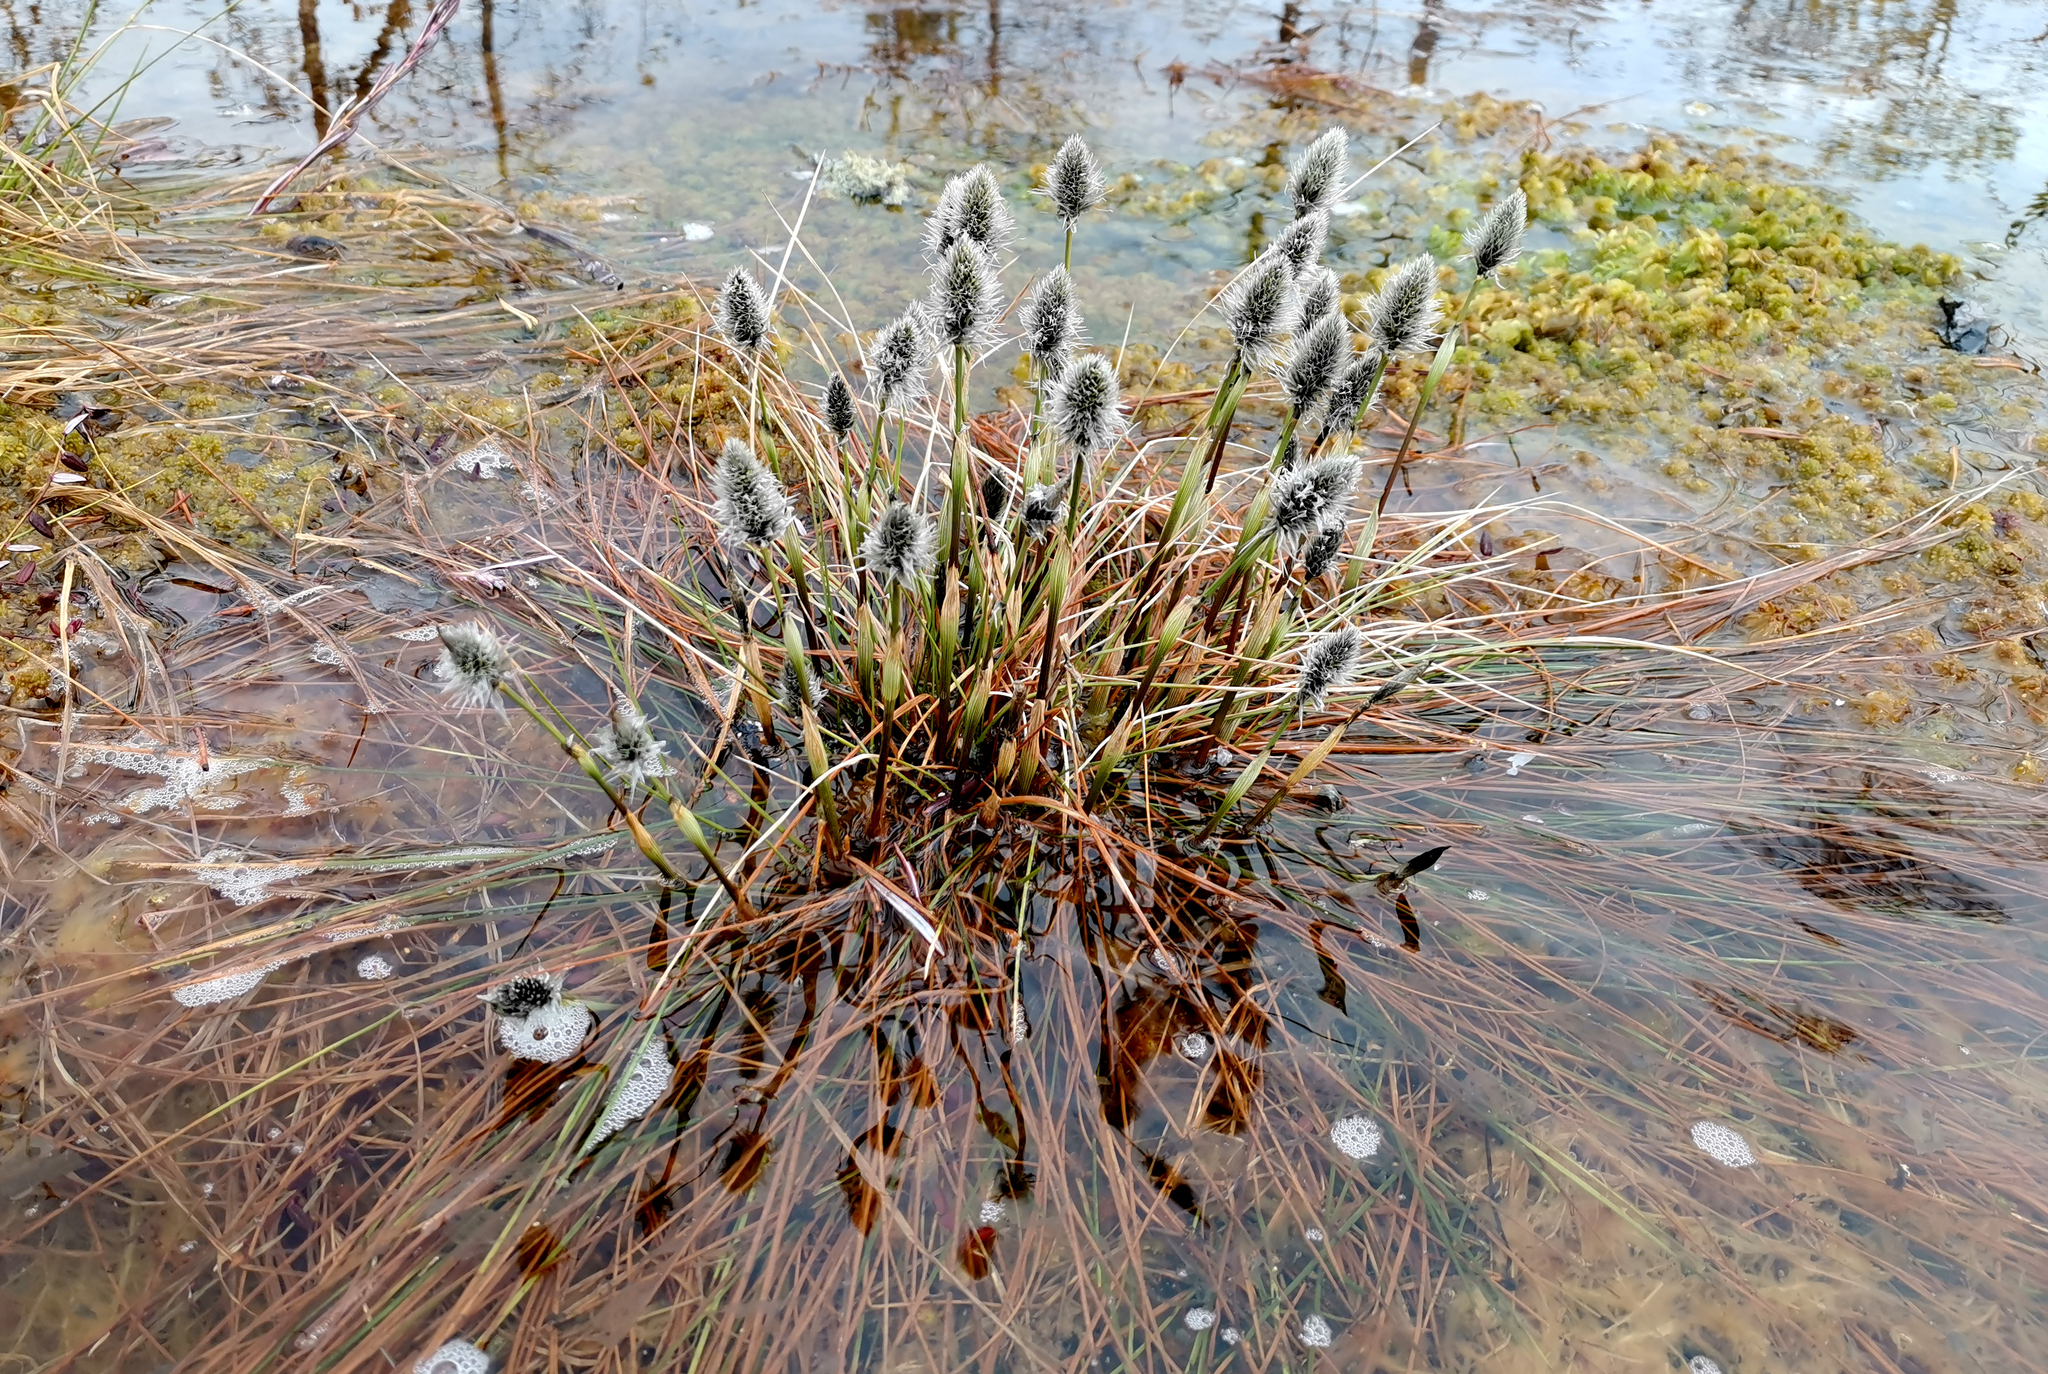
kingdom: Plantae
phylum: Tracheophyta
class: Liliopsida
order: Poales
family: Cyperaceae
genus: Eriophorum
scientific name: Eriophorum vaginatum
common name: Hare's-tail cottongrass
